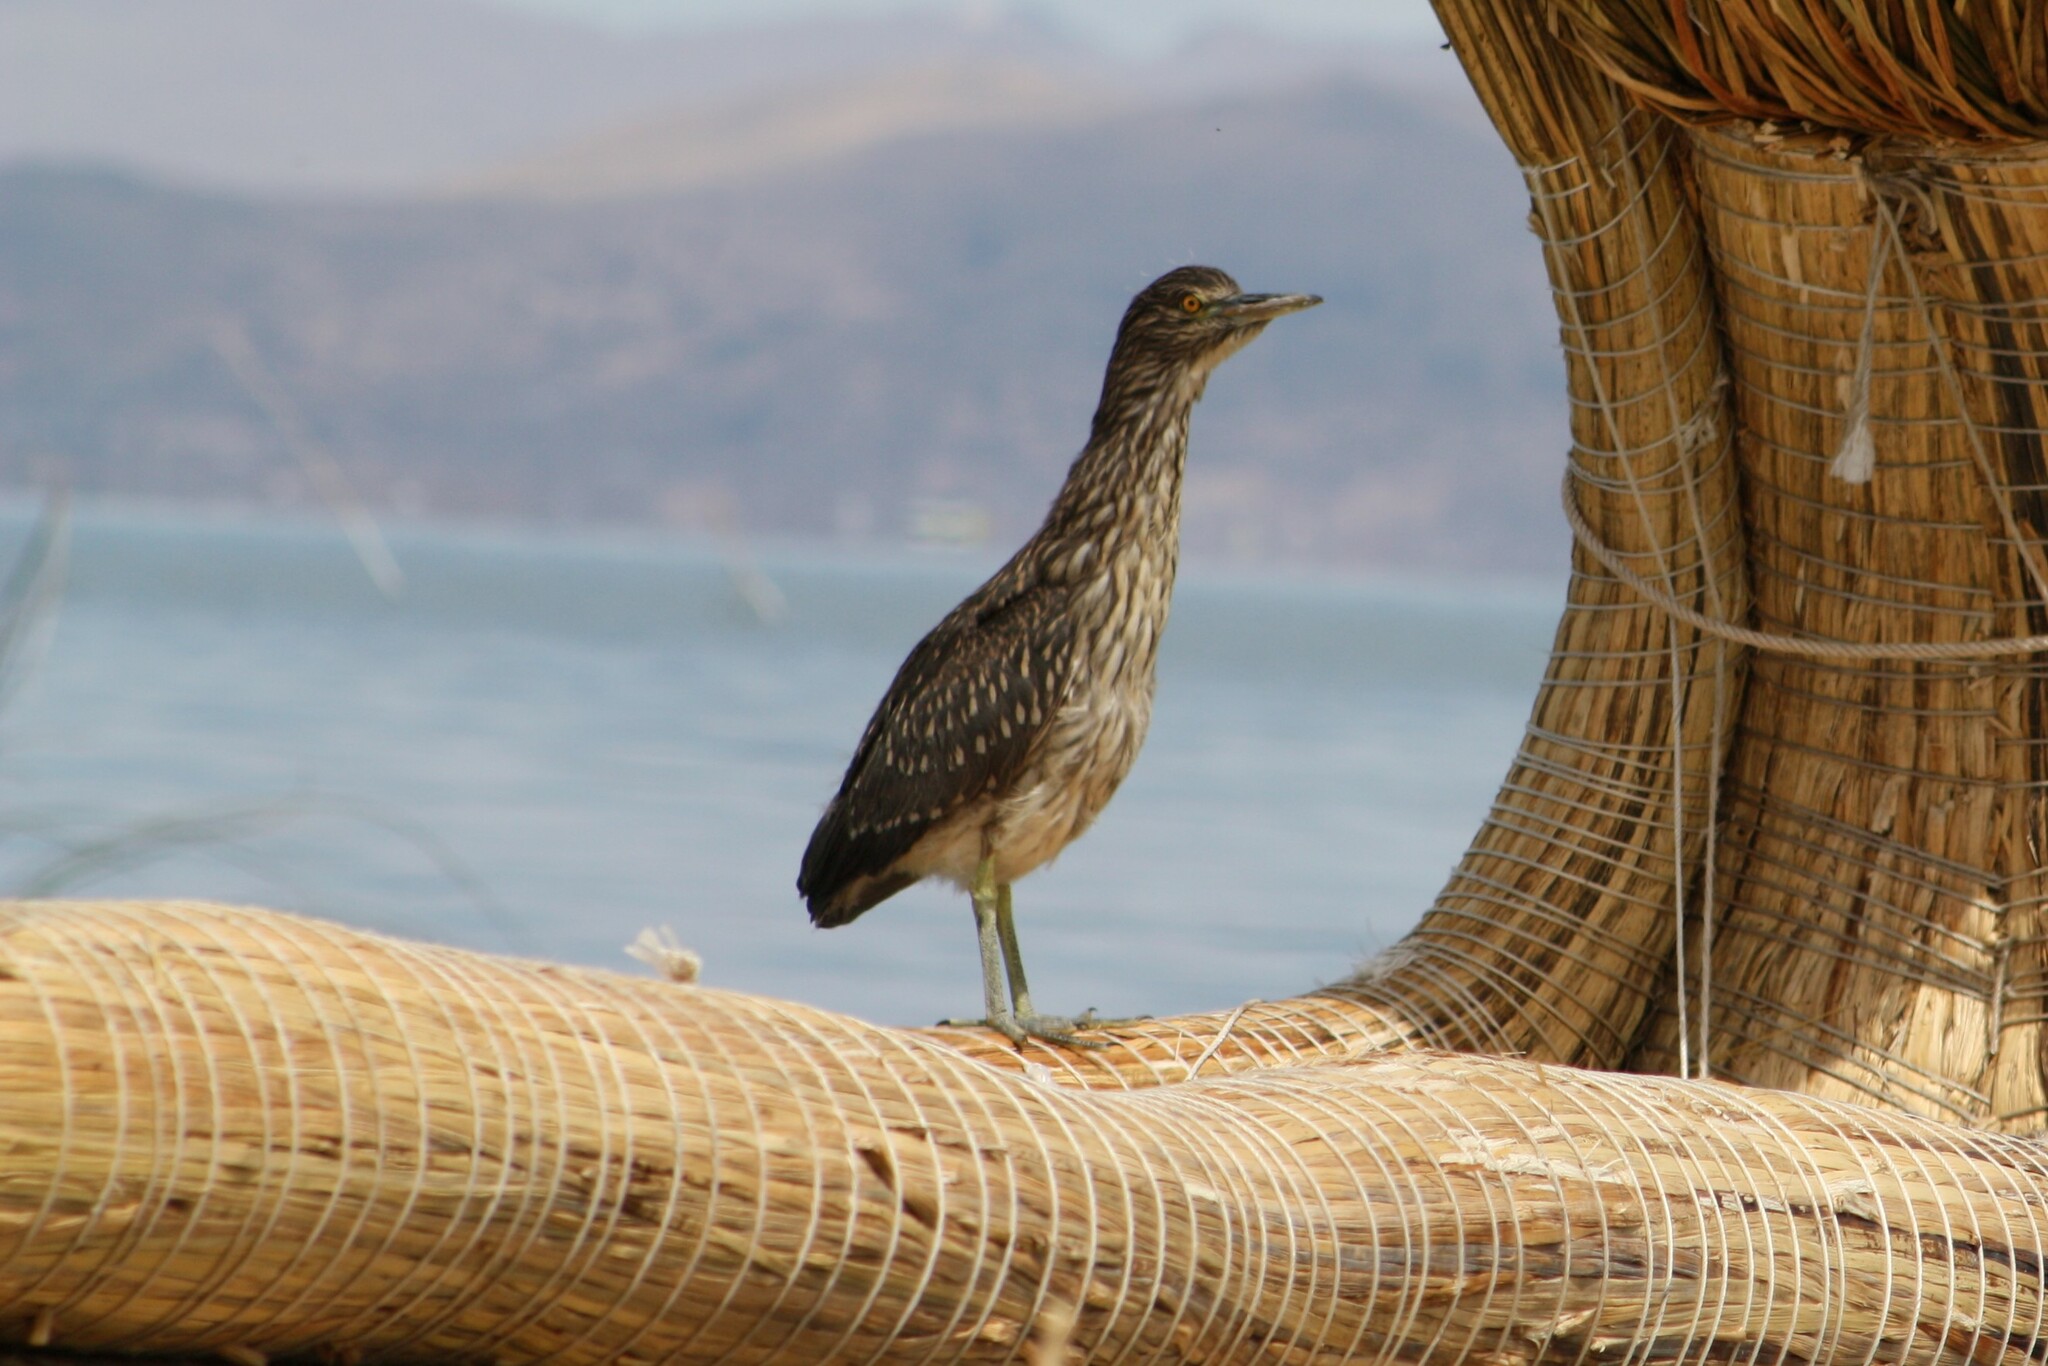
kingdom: Animalia
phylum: Chordata
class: Aves
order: Pelecaniformes
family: Ardeidae
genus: Nycticorax
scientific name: Nycticorax nycticorax
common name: Black-crowned night heron
